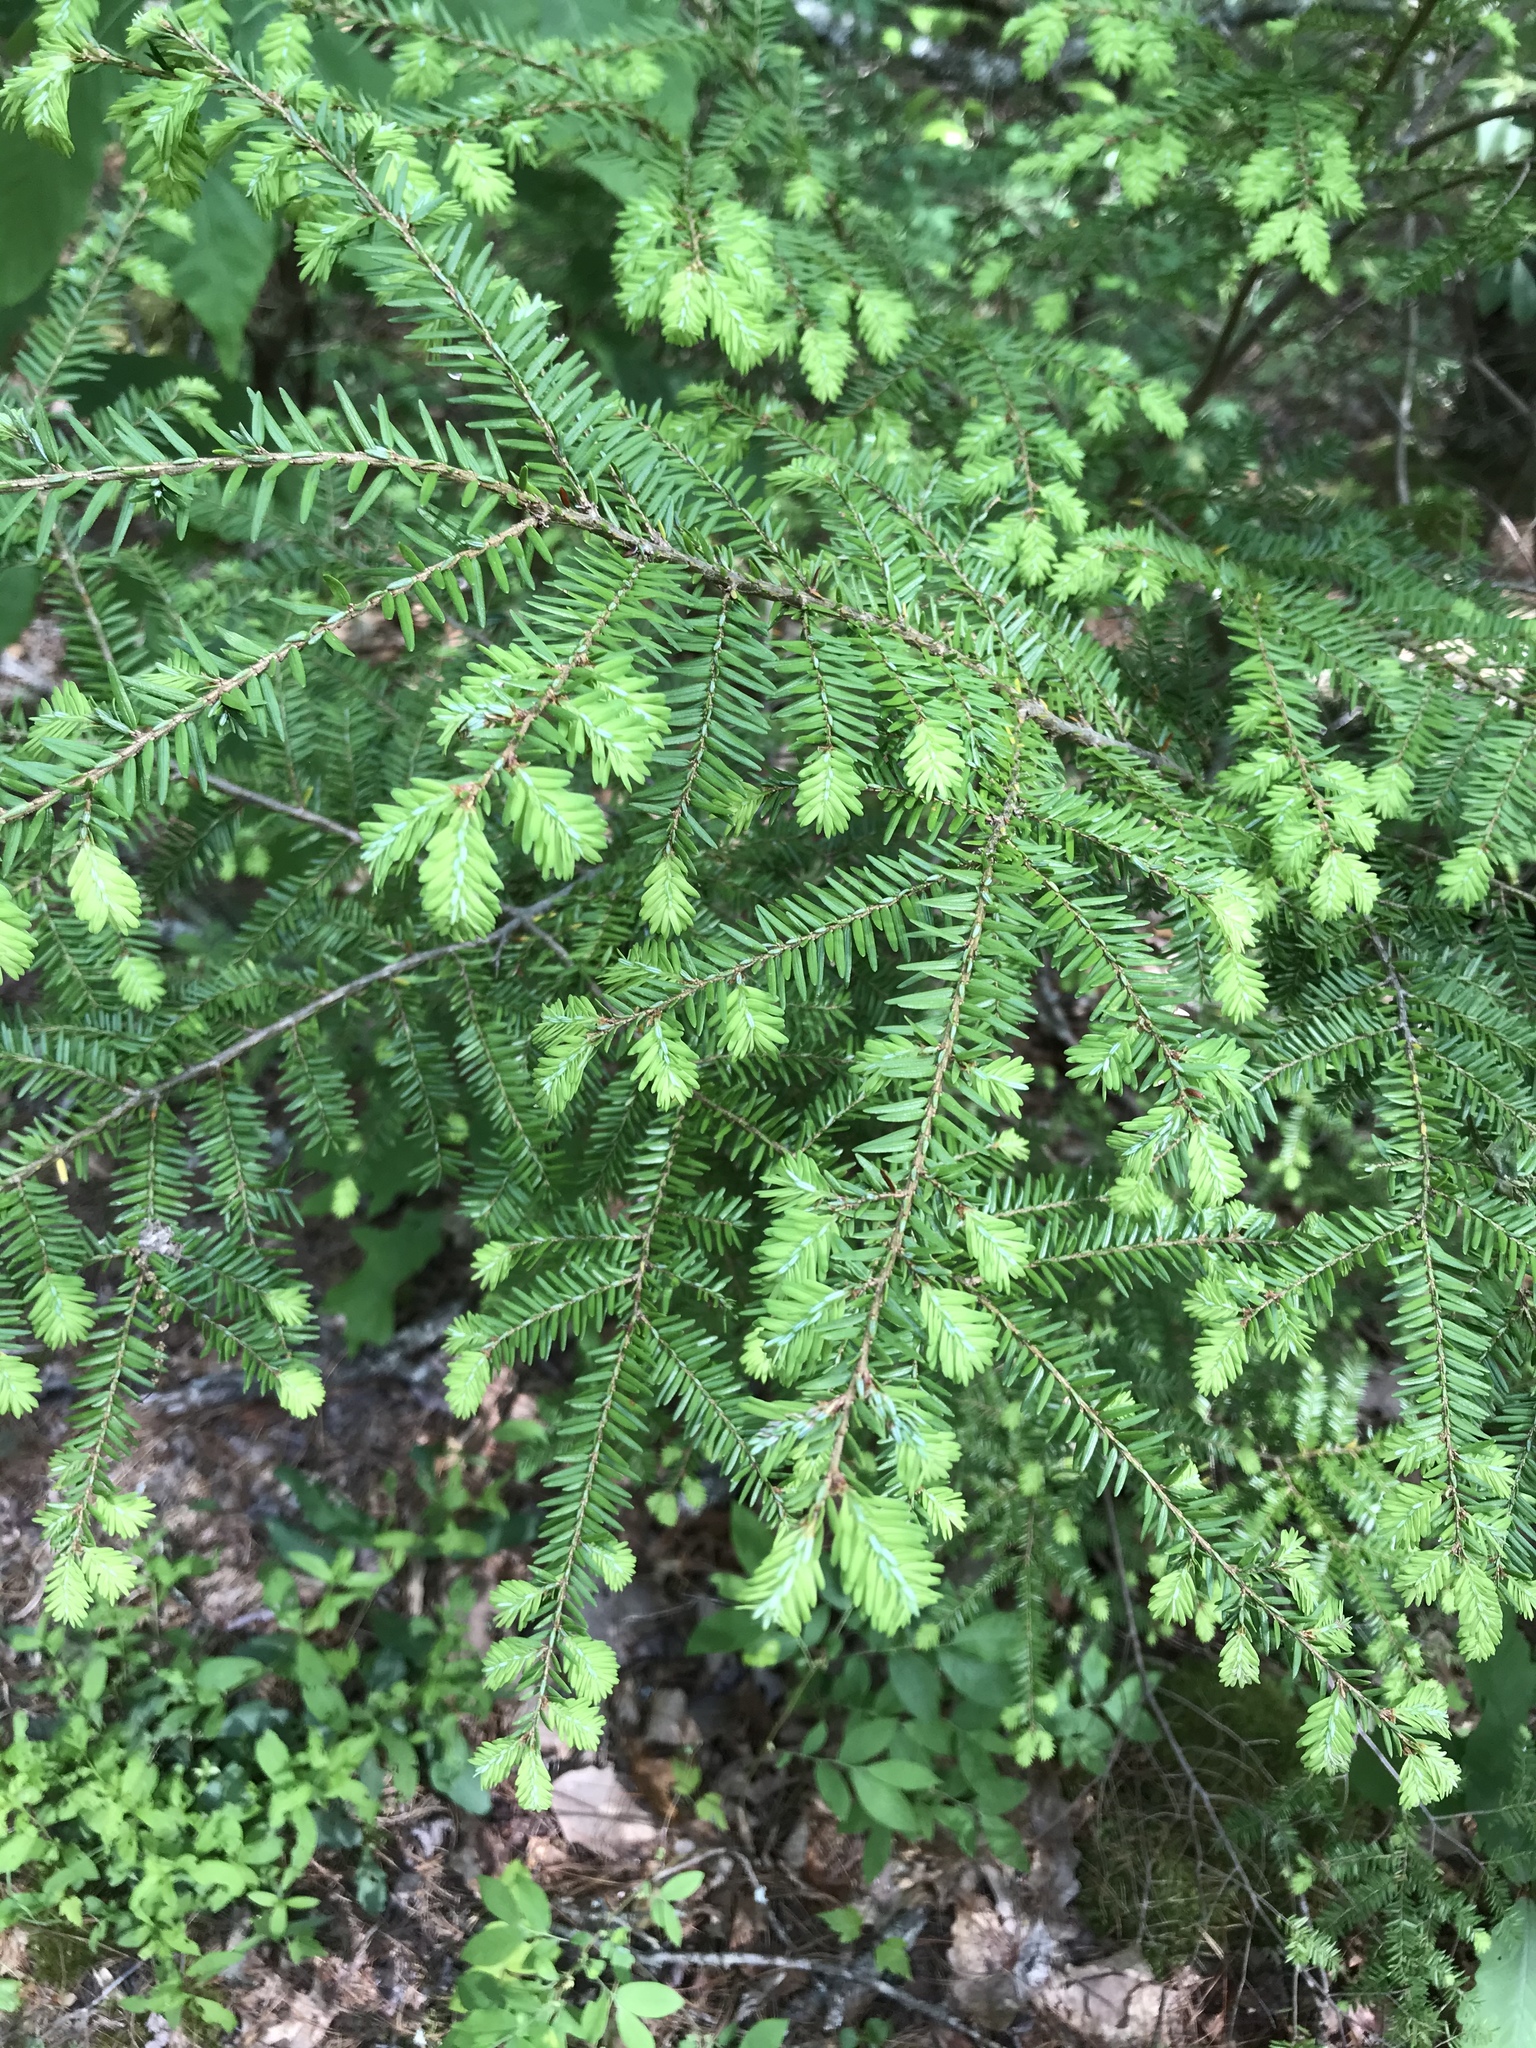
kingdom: Plantae
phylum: Tracheophyta
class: Pinopsida
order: Pinales
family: Pinaceae
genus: Tsuga
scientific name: Tsuga canadensis
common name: Eastern hemlock
